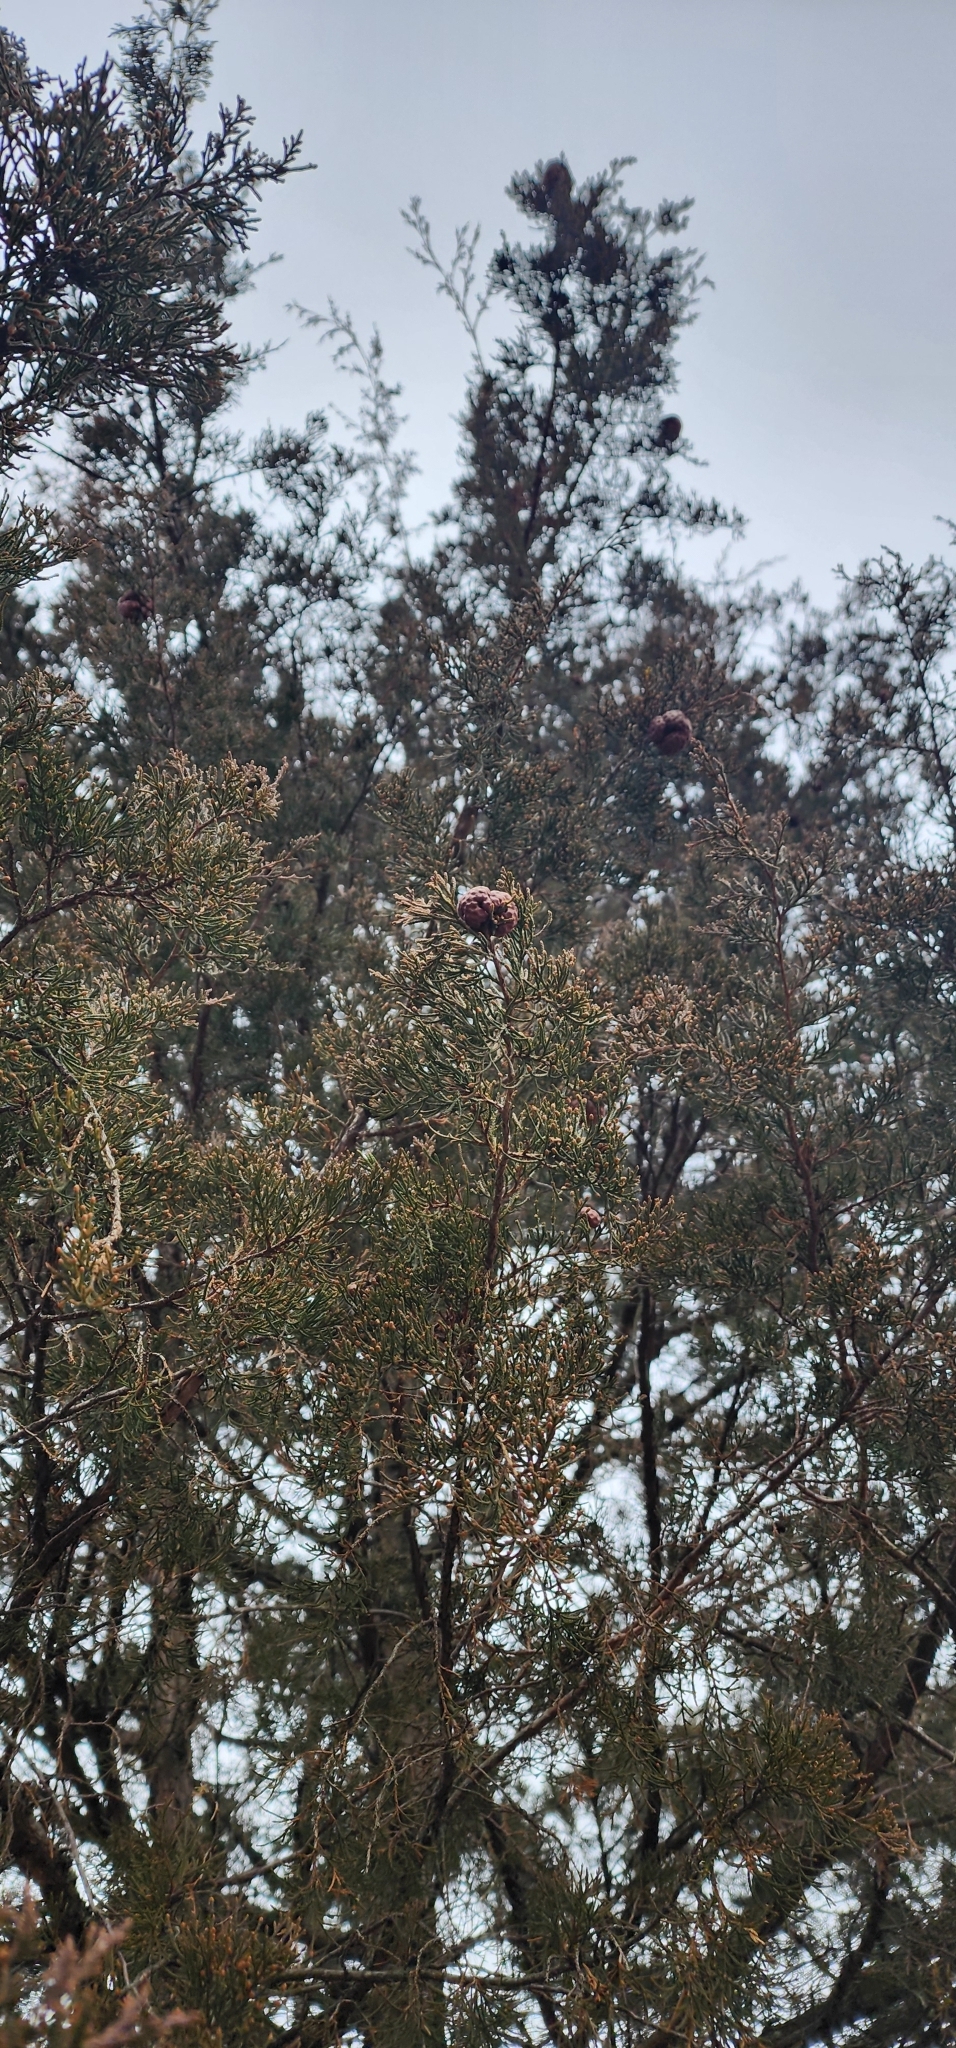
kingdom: Fungi
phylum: Basidiomycota
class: Pucciniomycetes
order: Pucciniales
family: Gymnosporangiaceae
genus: Gymnosporangium
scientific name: Gymnosporangium juniperi-virginianae
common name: Juniper-apple rust
